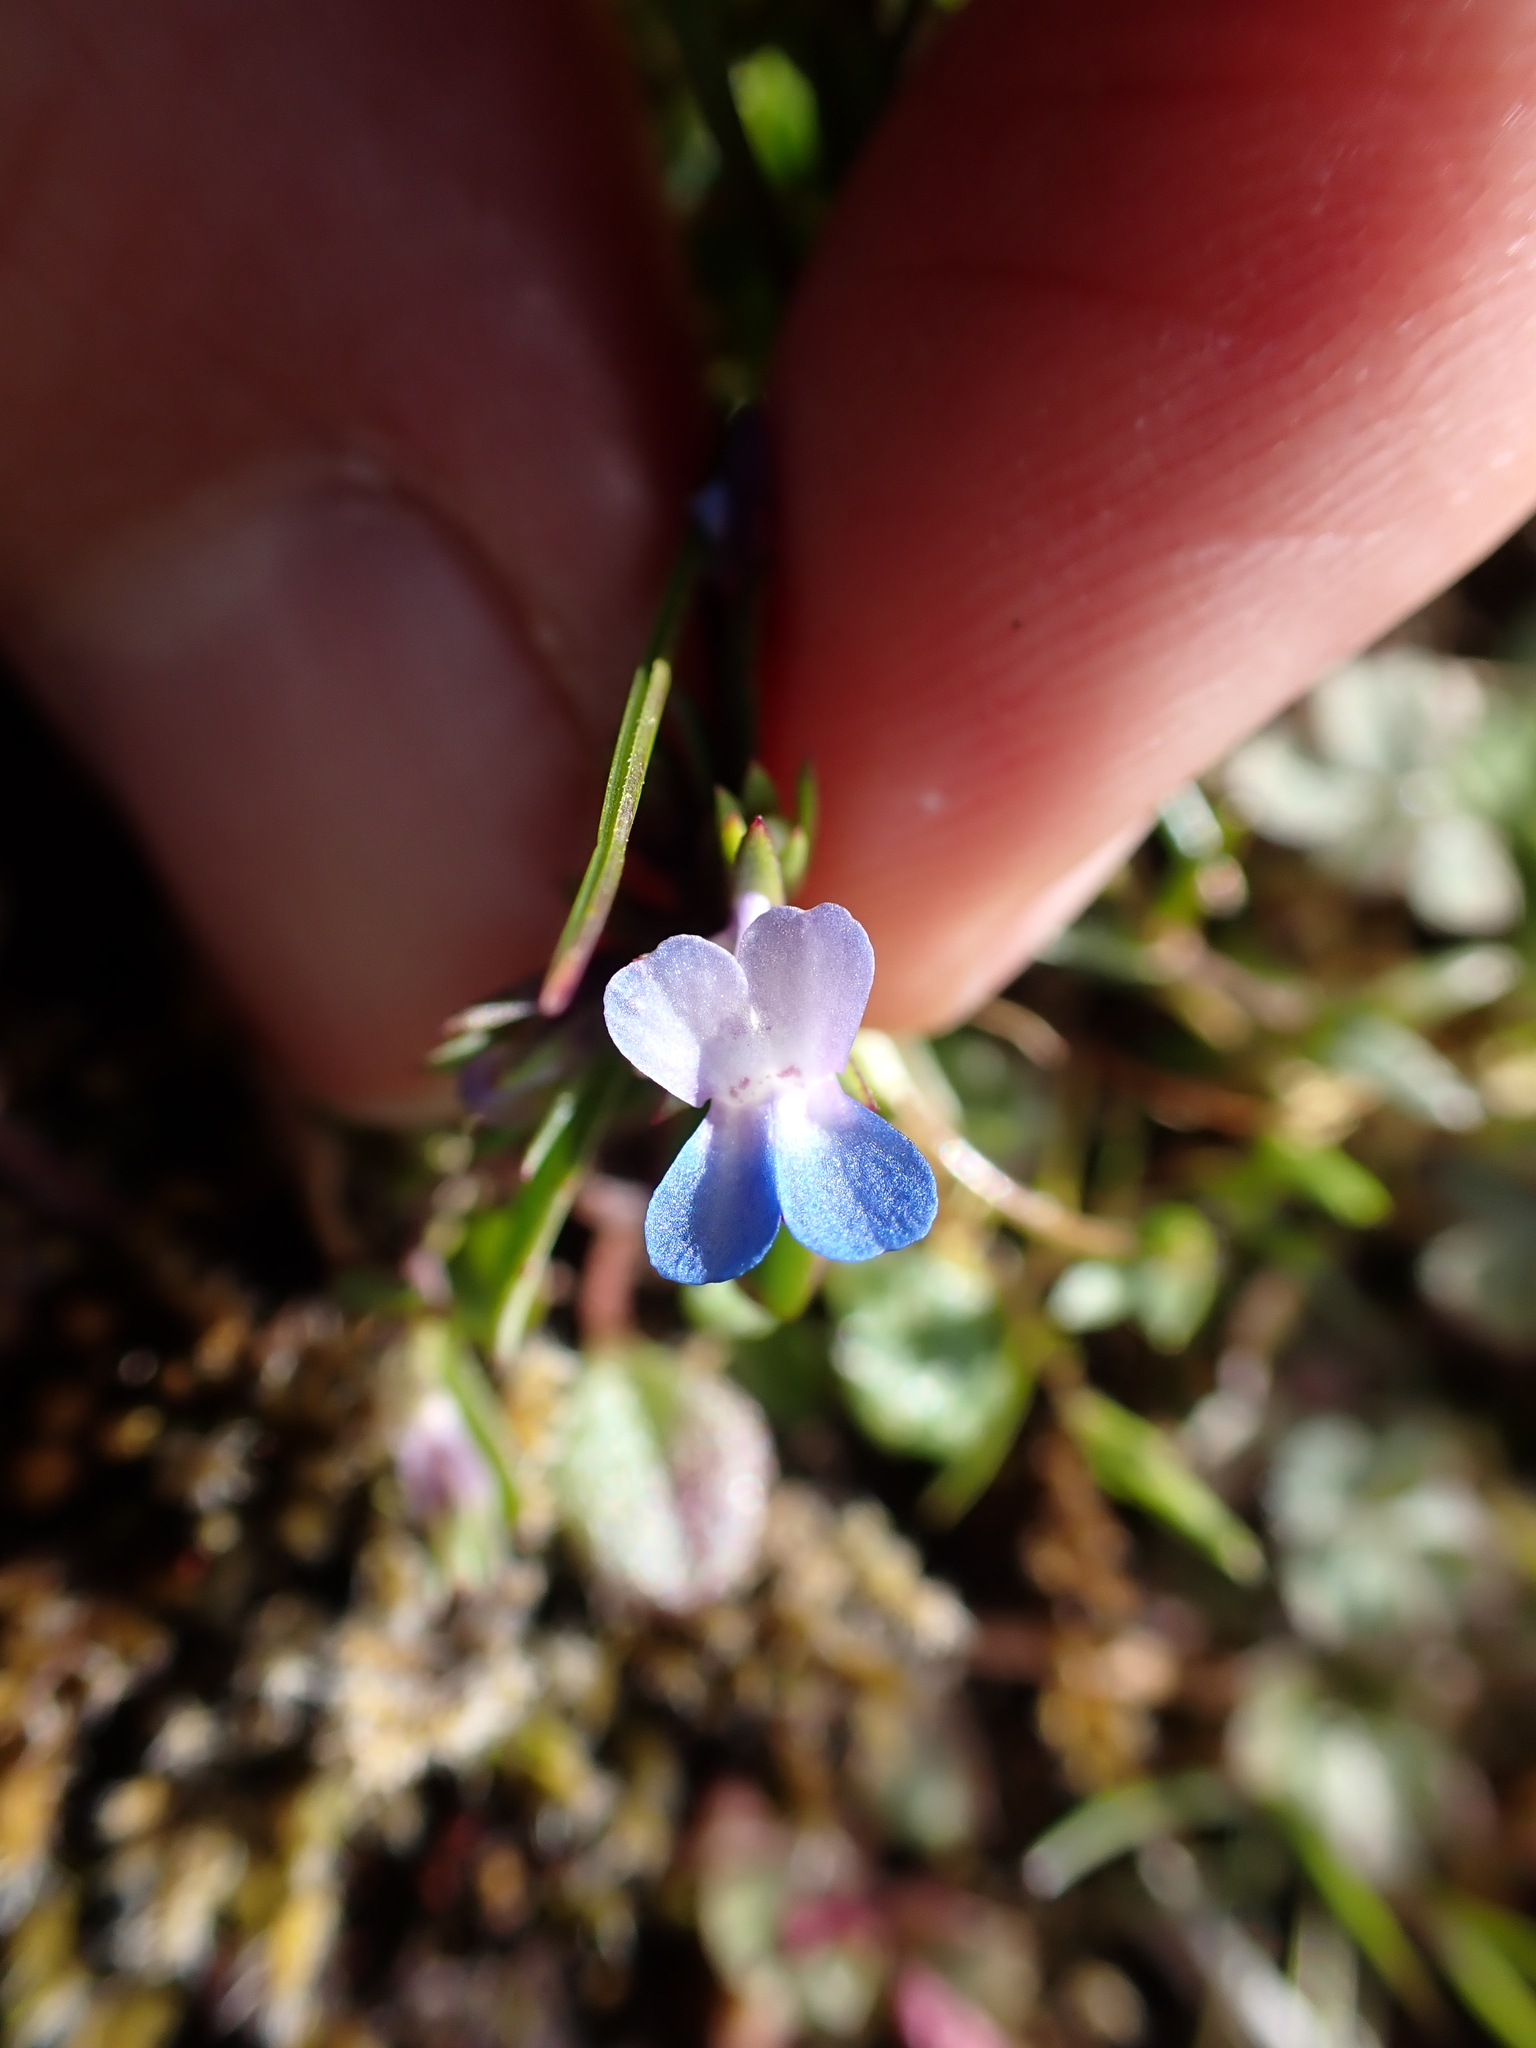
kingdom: Plantae
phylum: Tracheophyta
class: Magnoliopsida
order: Lamiales
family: Plantaginaceae
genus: Collinsia
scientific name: Collinsia parviflora
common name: Blue-lips
